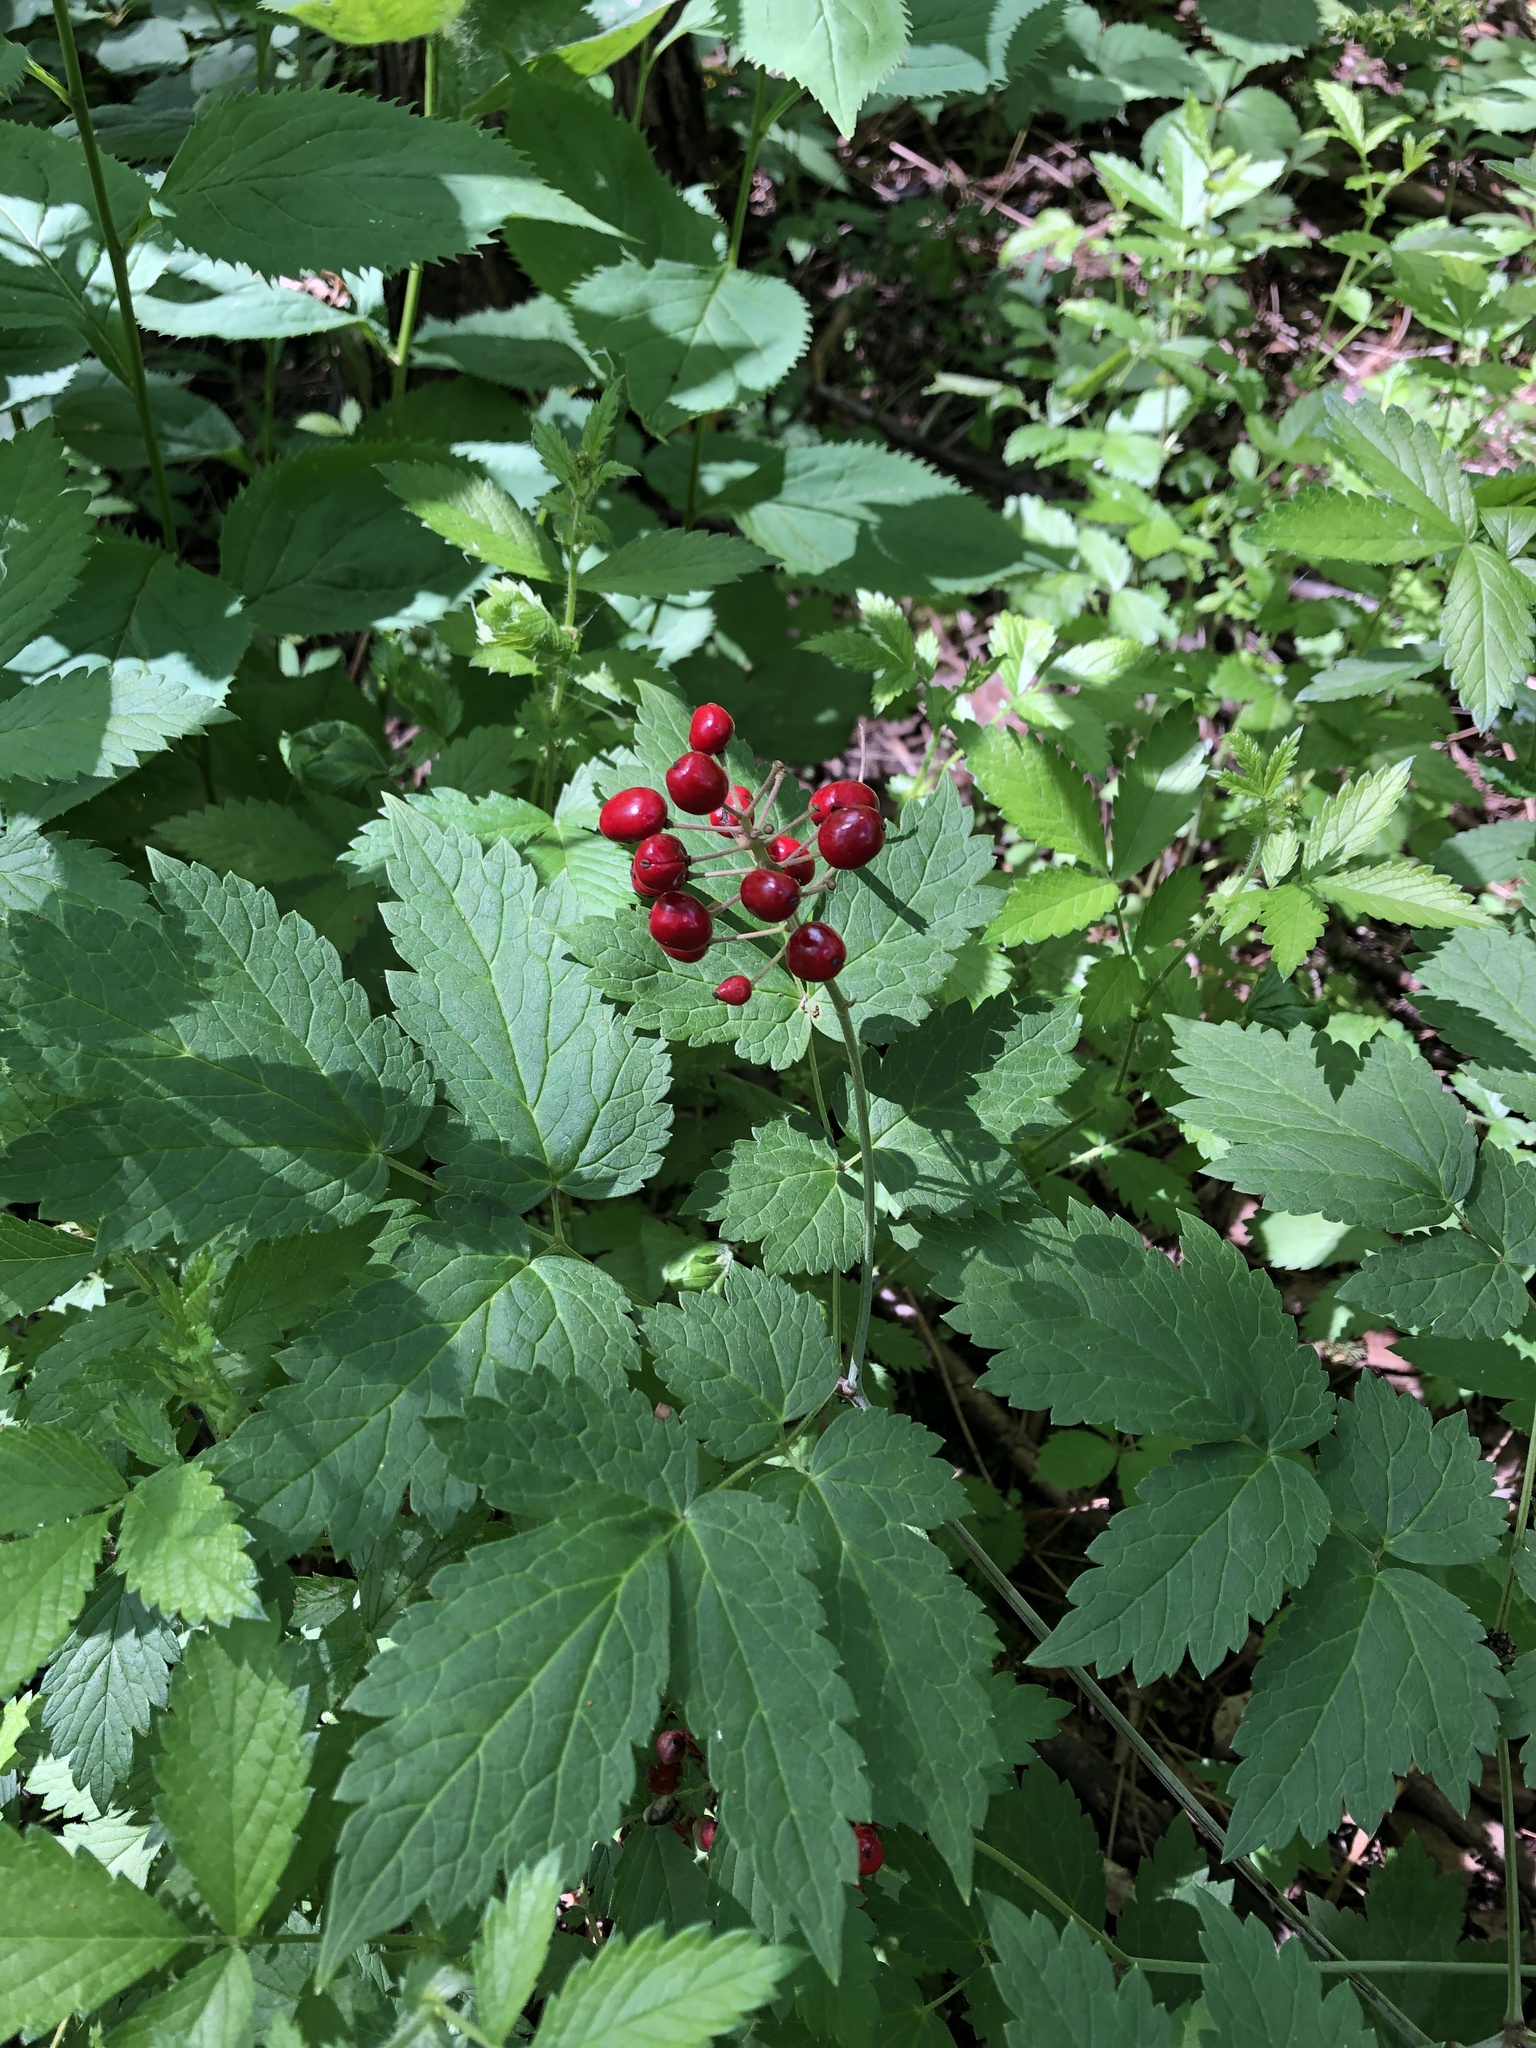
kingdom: Plantae
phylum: Tracheophyta
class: Magnoliopsida
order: Ranunculales
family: Ranunculaceae
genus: Actaea
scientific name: Actaea rubra
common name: Red baneberry
